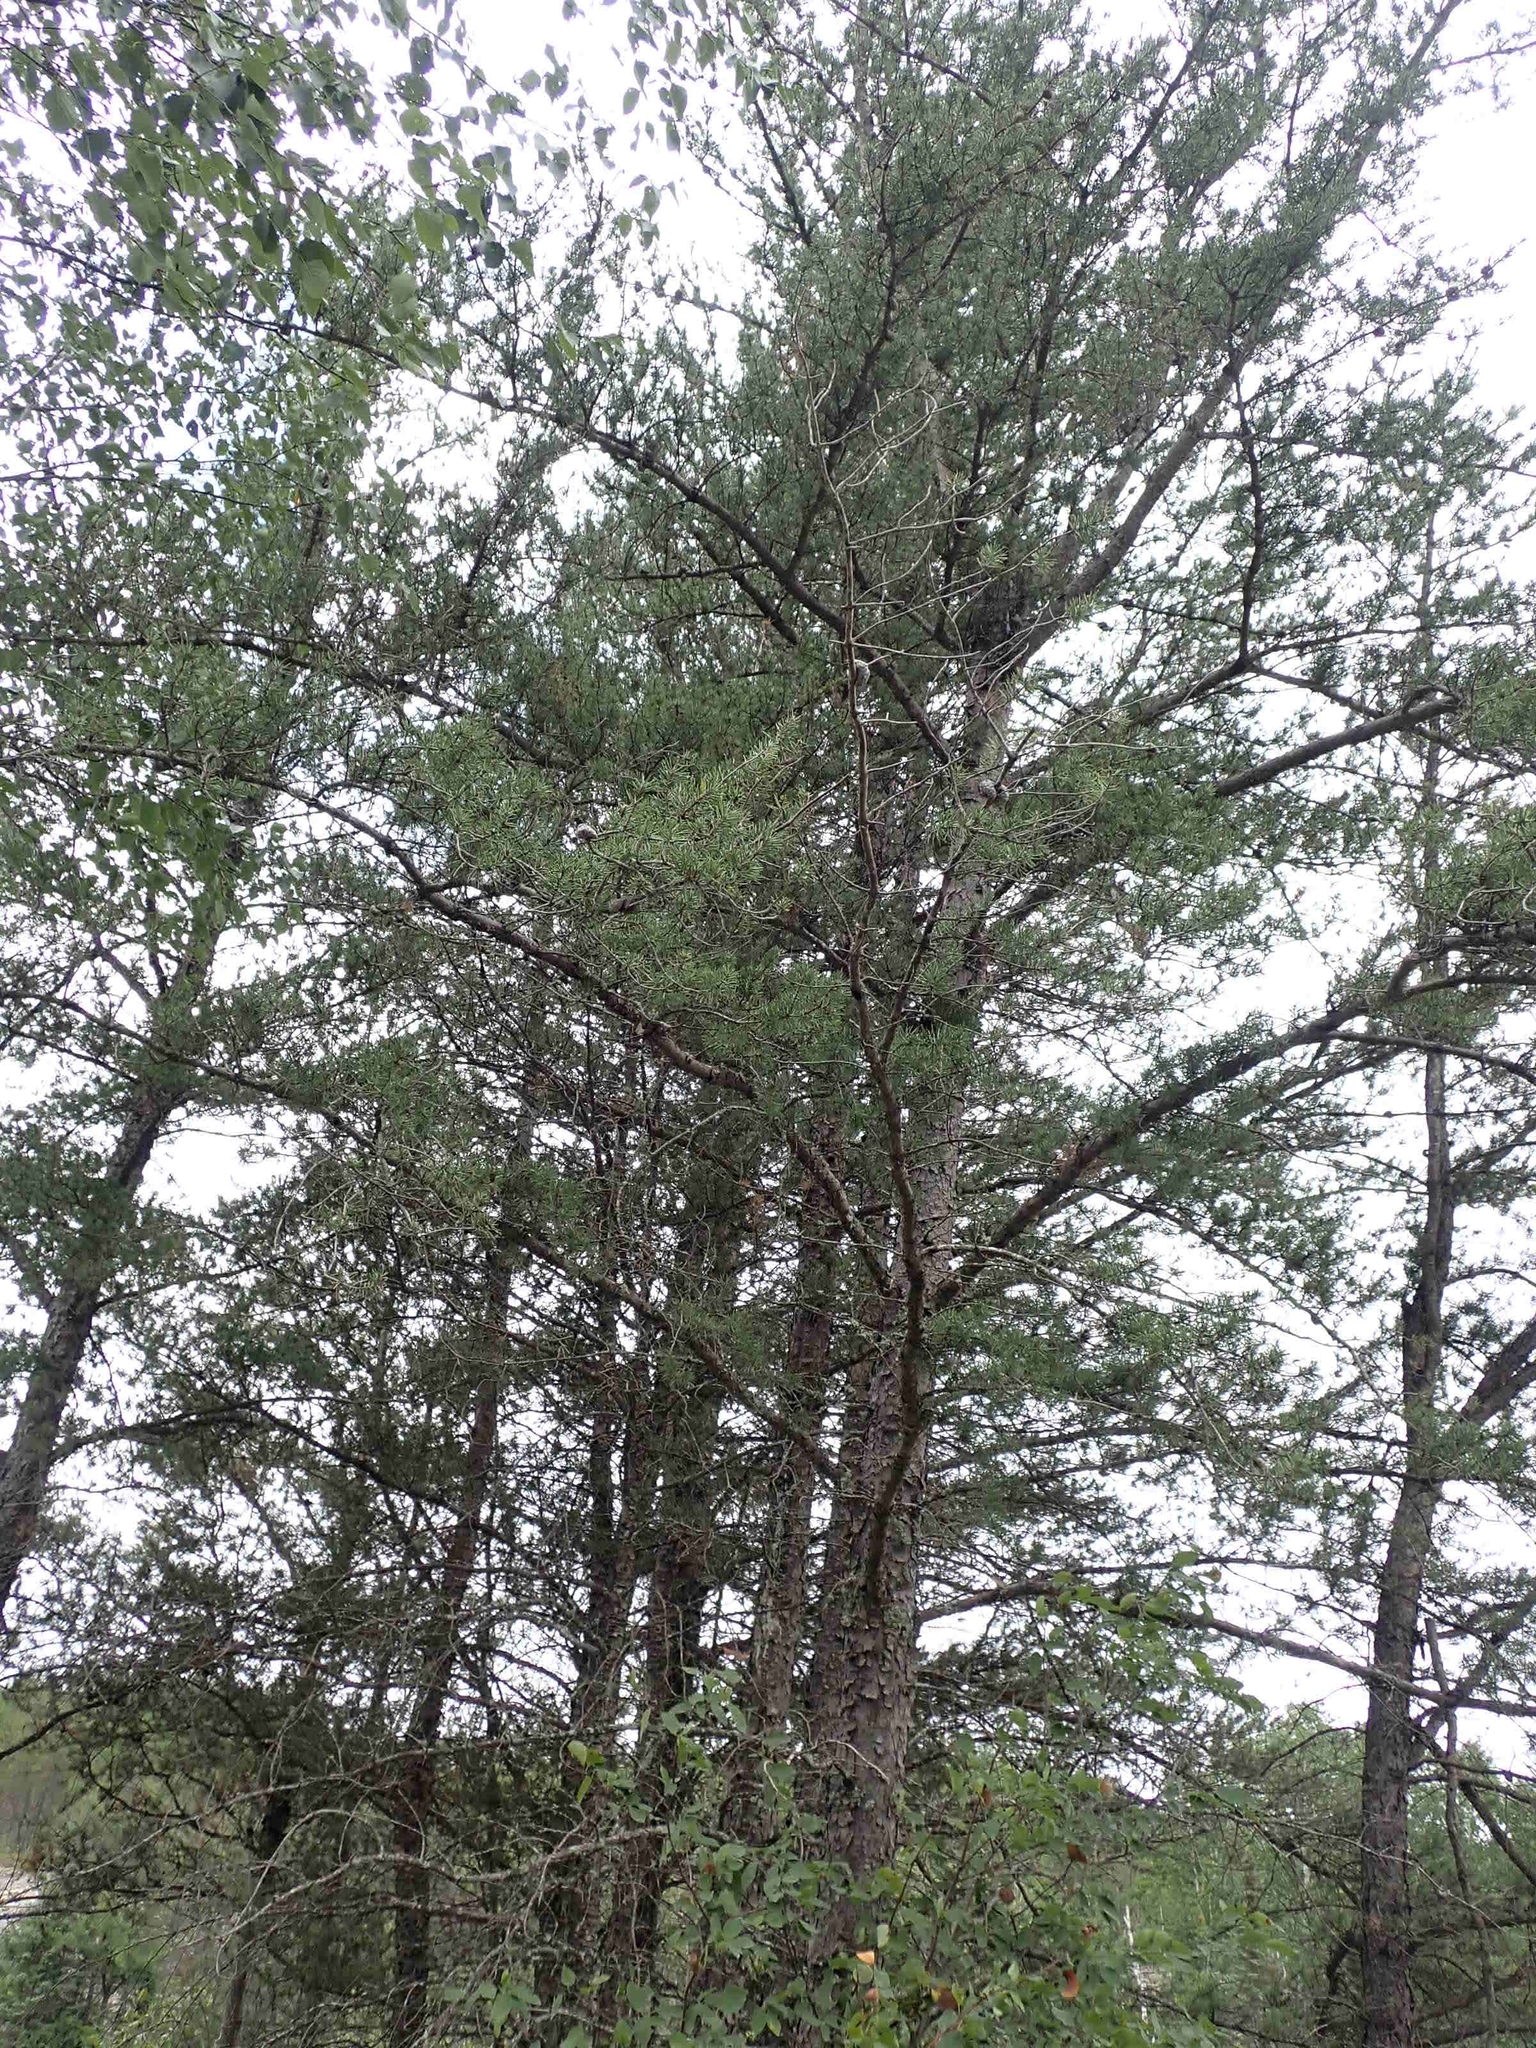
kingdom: Plantae
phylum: Tracheophyta
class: Pinopsida
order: Pinales
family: Pinaceae
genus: Pinus
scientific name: Pinus banksiana
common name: Jack pine
